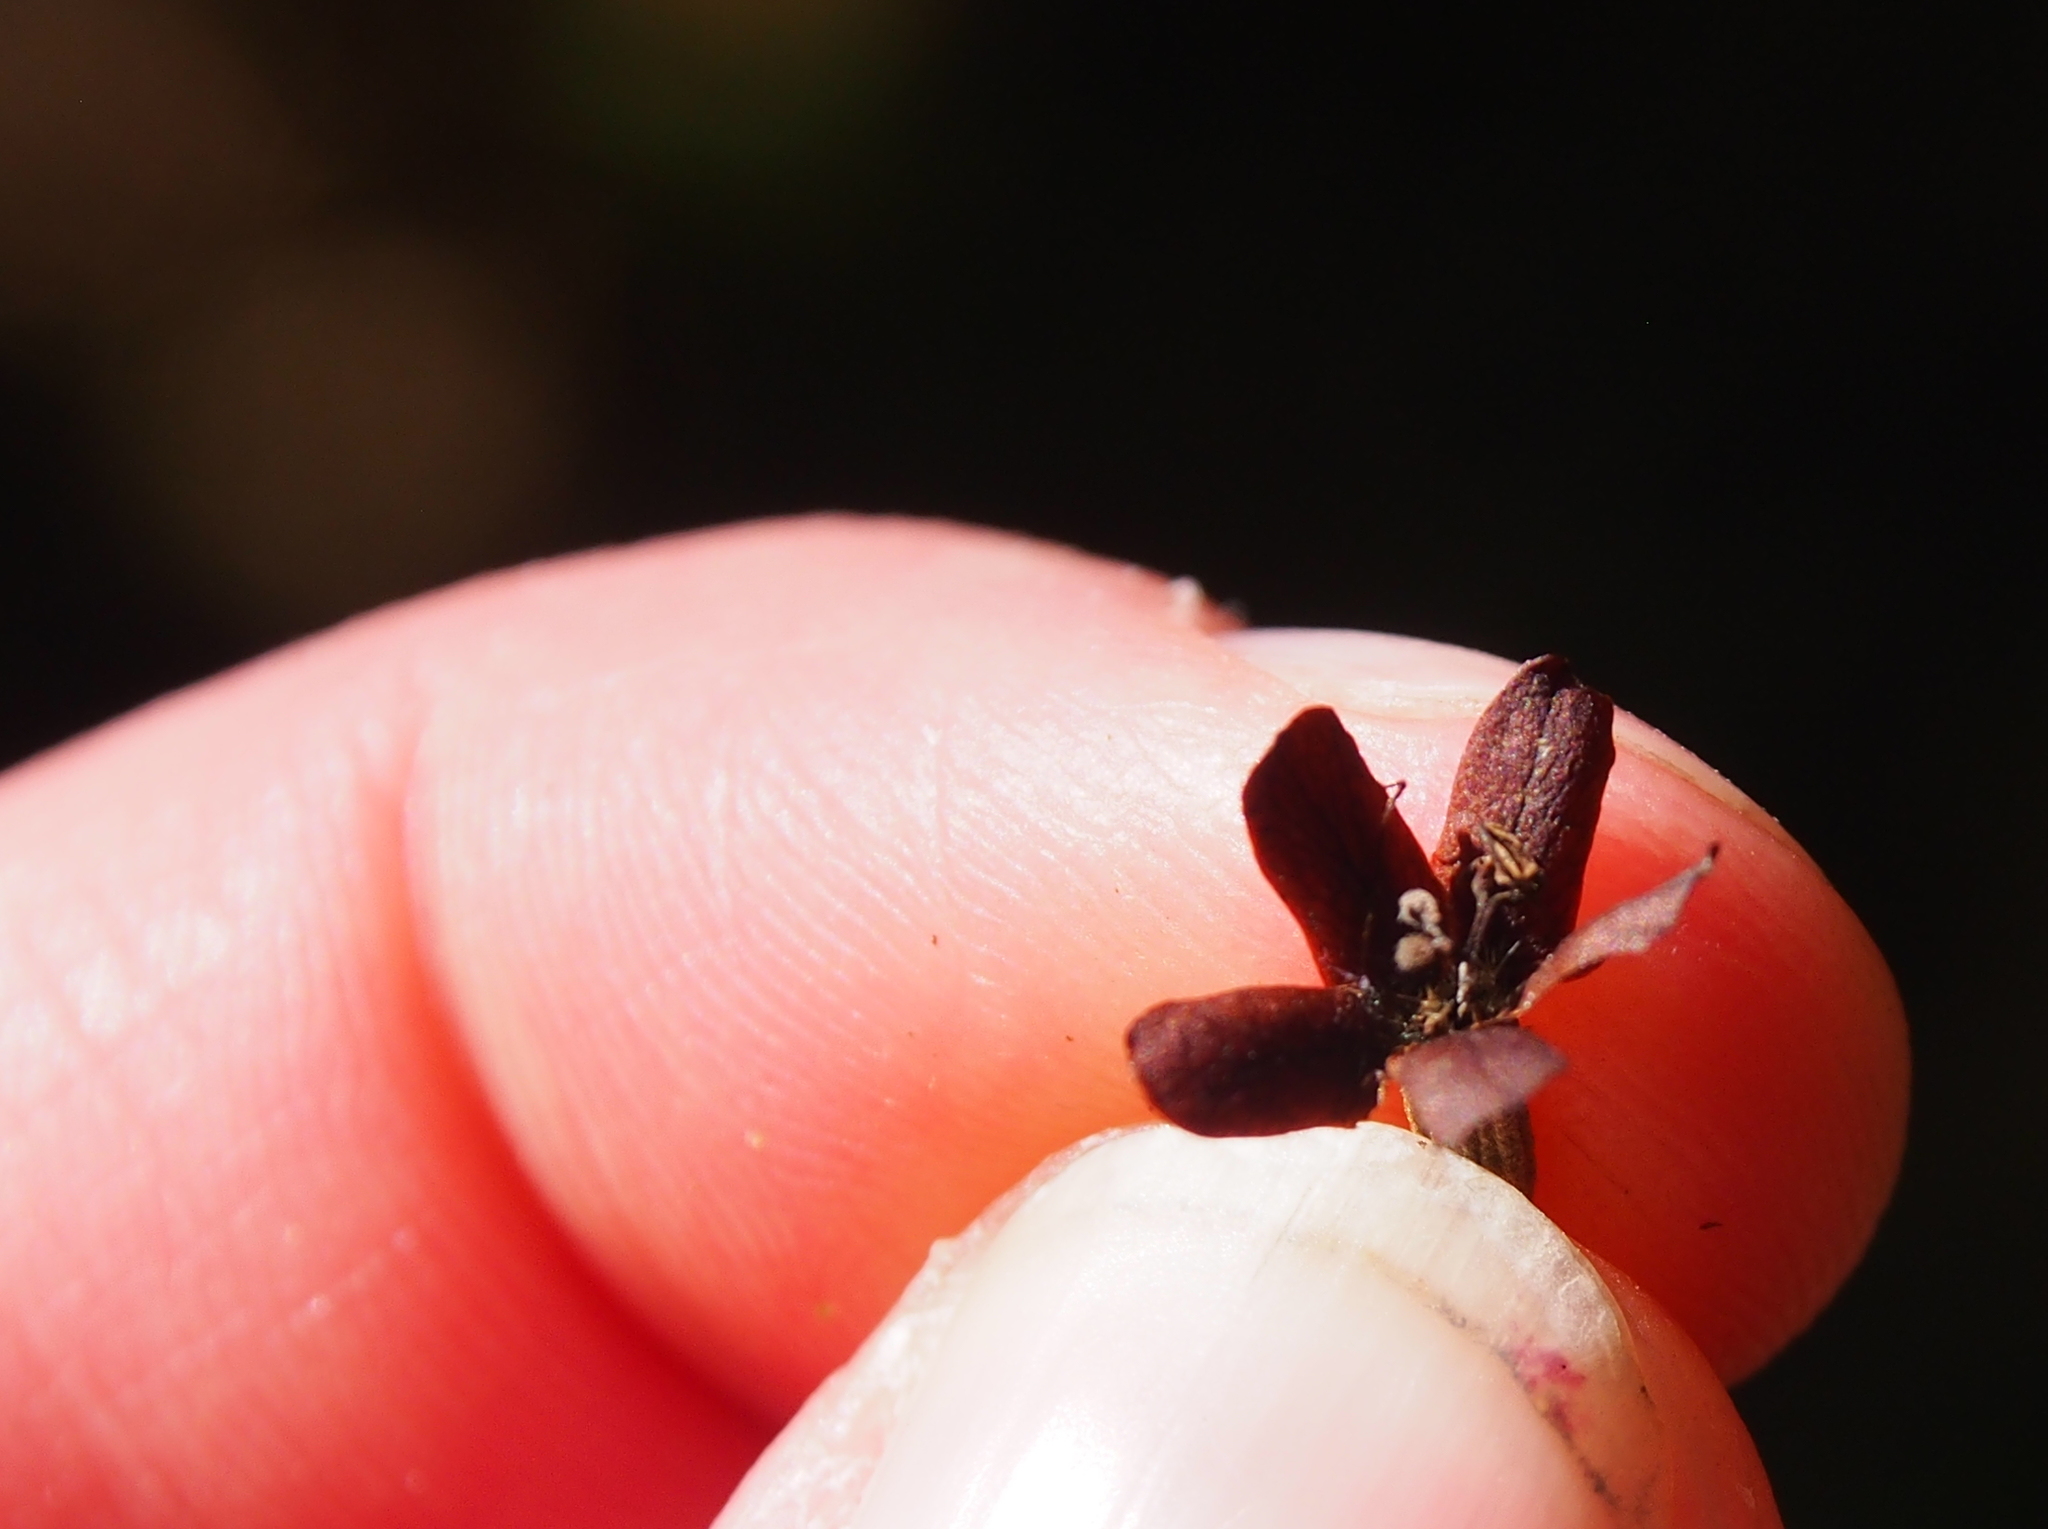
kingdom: Plantae
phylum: Tracheophyta
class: Magnoliopsida
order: Boraginales
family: Cordiaceae
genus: Cordia
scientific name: Cordia alliodora
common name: Spanish elm
